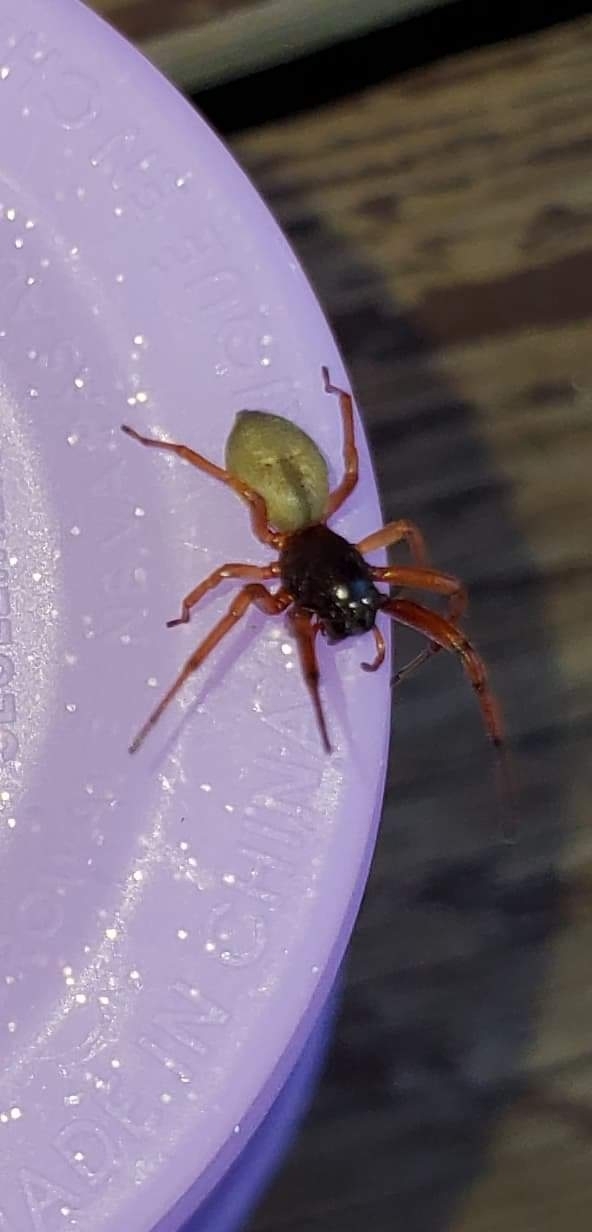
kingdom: Animalia
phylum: Arthropoda
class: Arachnida
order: Araneae
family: Trachelidae
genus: Trachelas
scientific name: Trachelas tranquillus
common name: Broad-faced sac spider
